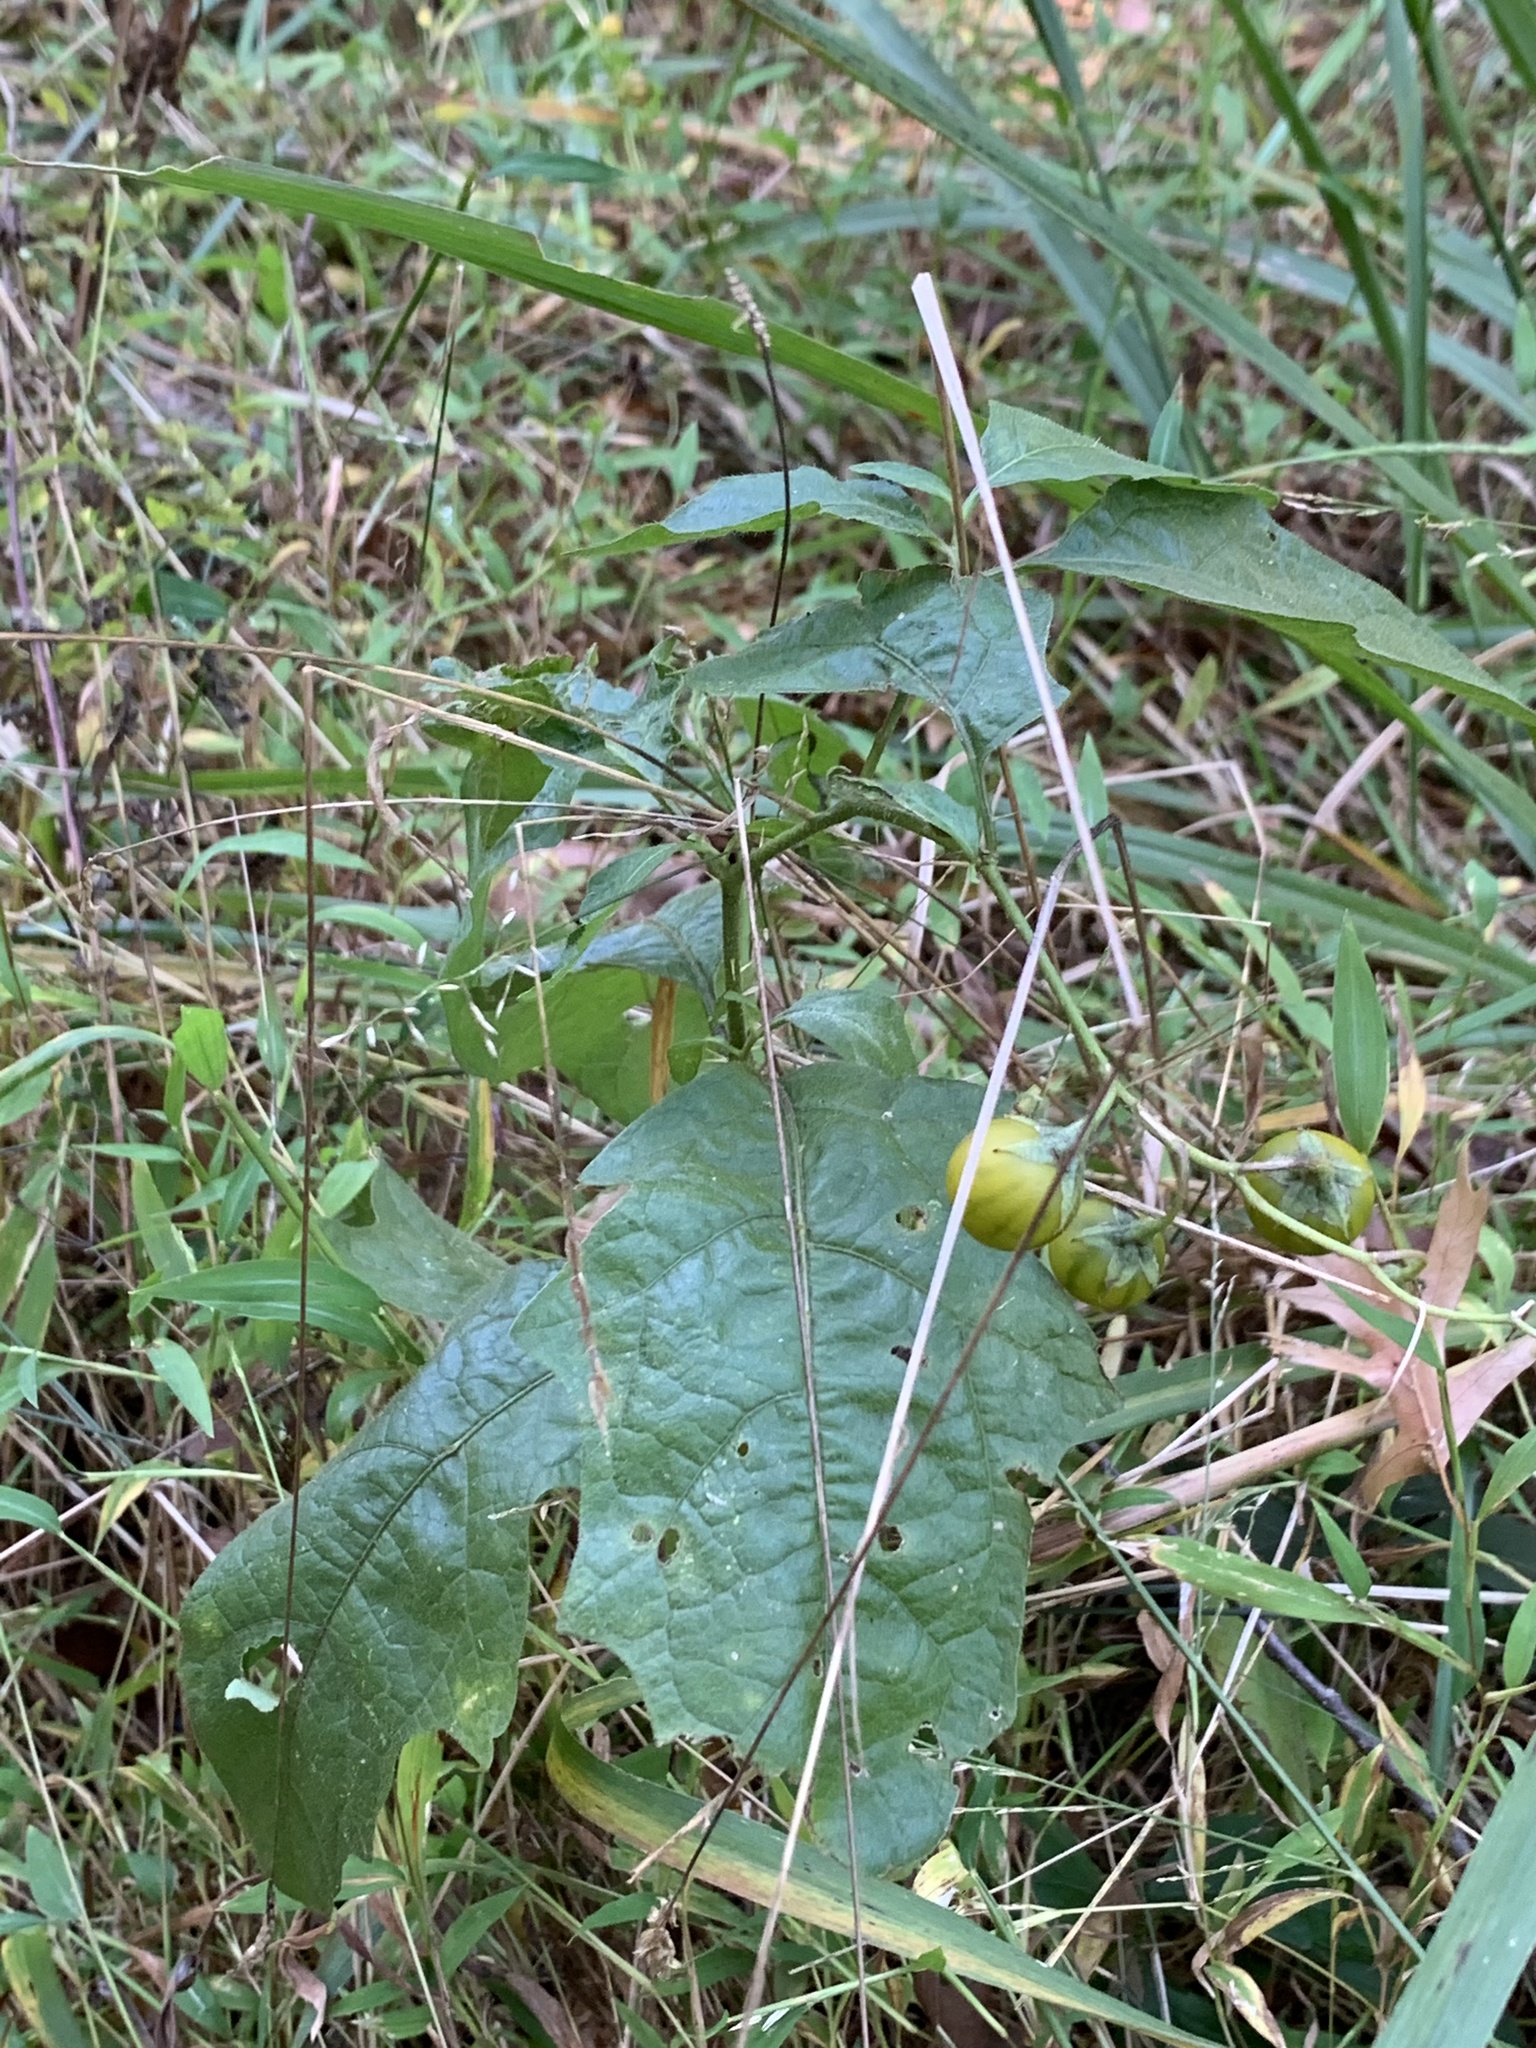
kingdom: Plantae
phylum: Tracheophyta
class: Magnoliopsida
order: Solanales
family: Solanaceae
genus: Solanum
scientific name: Solanum carolinense
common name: Horse-nettle
